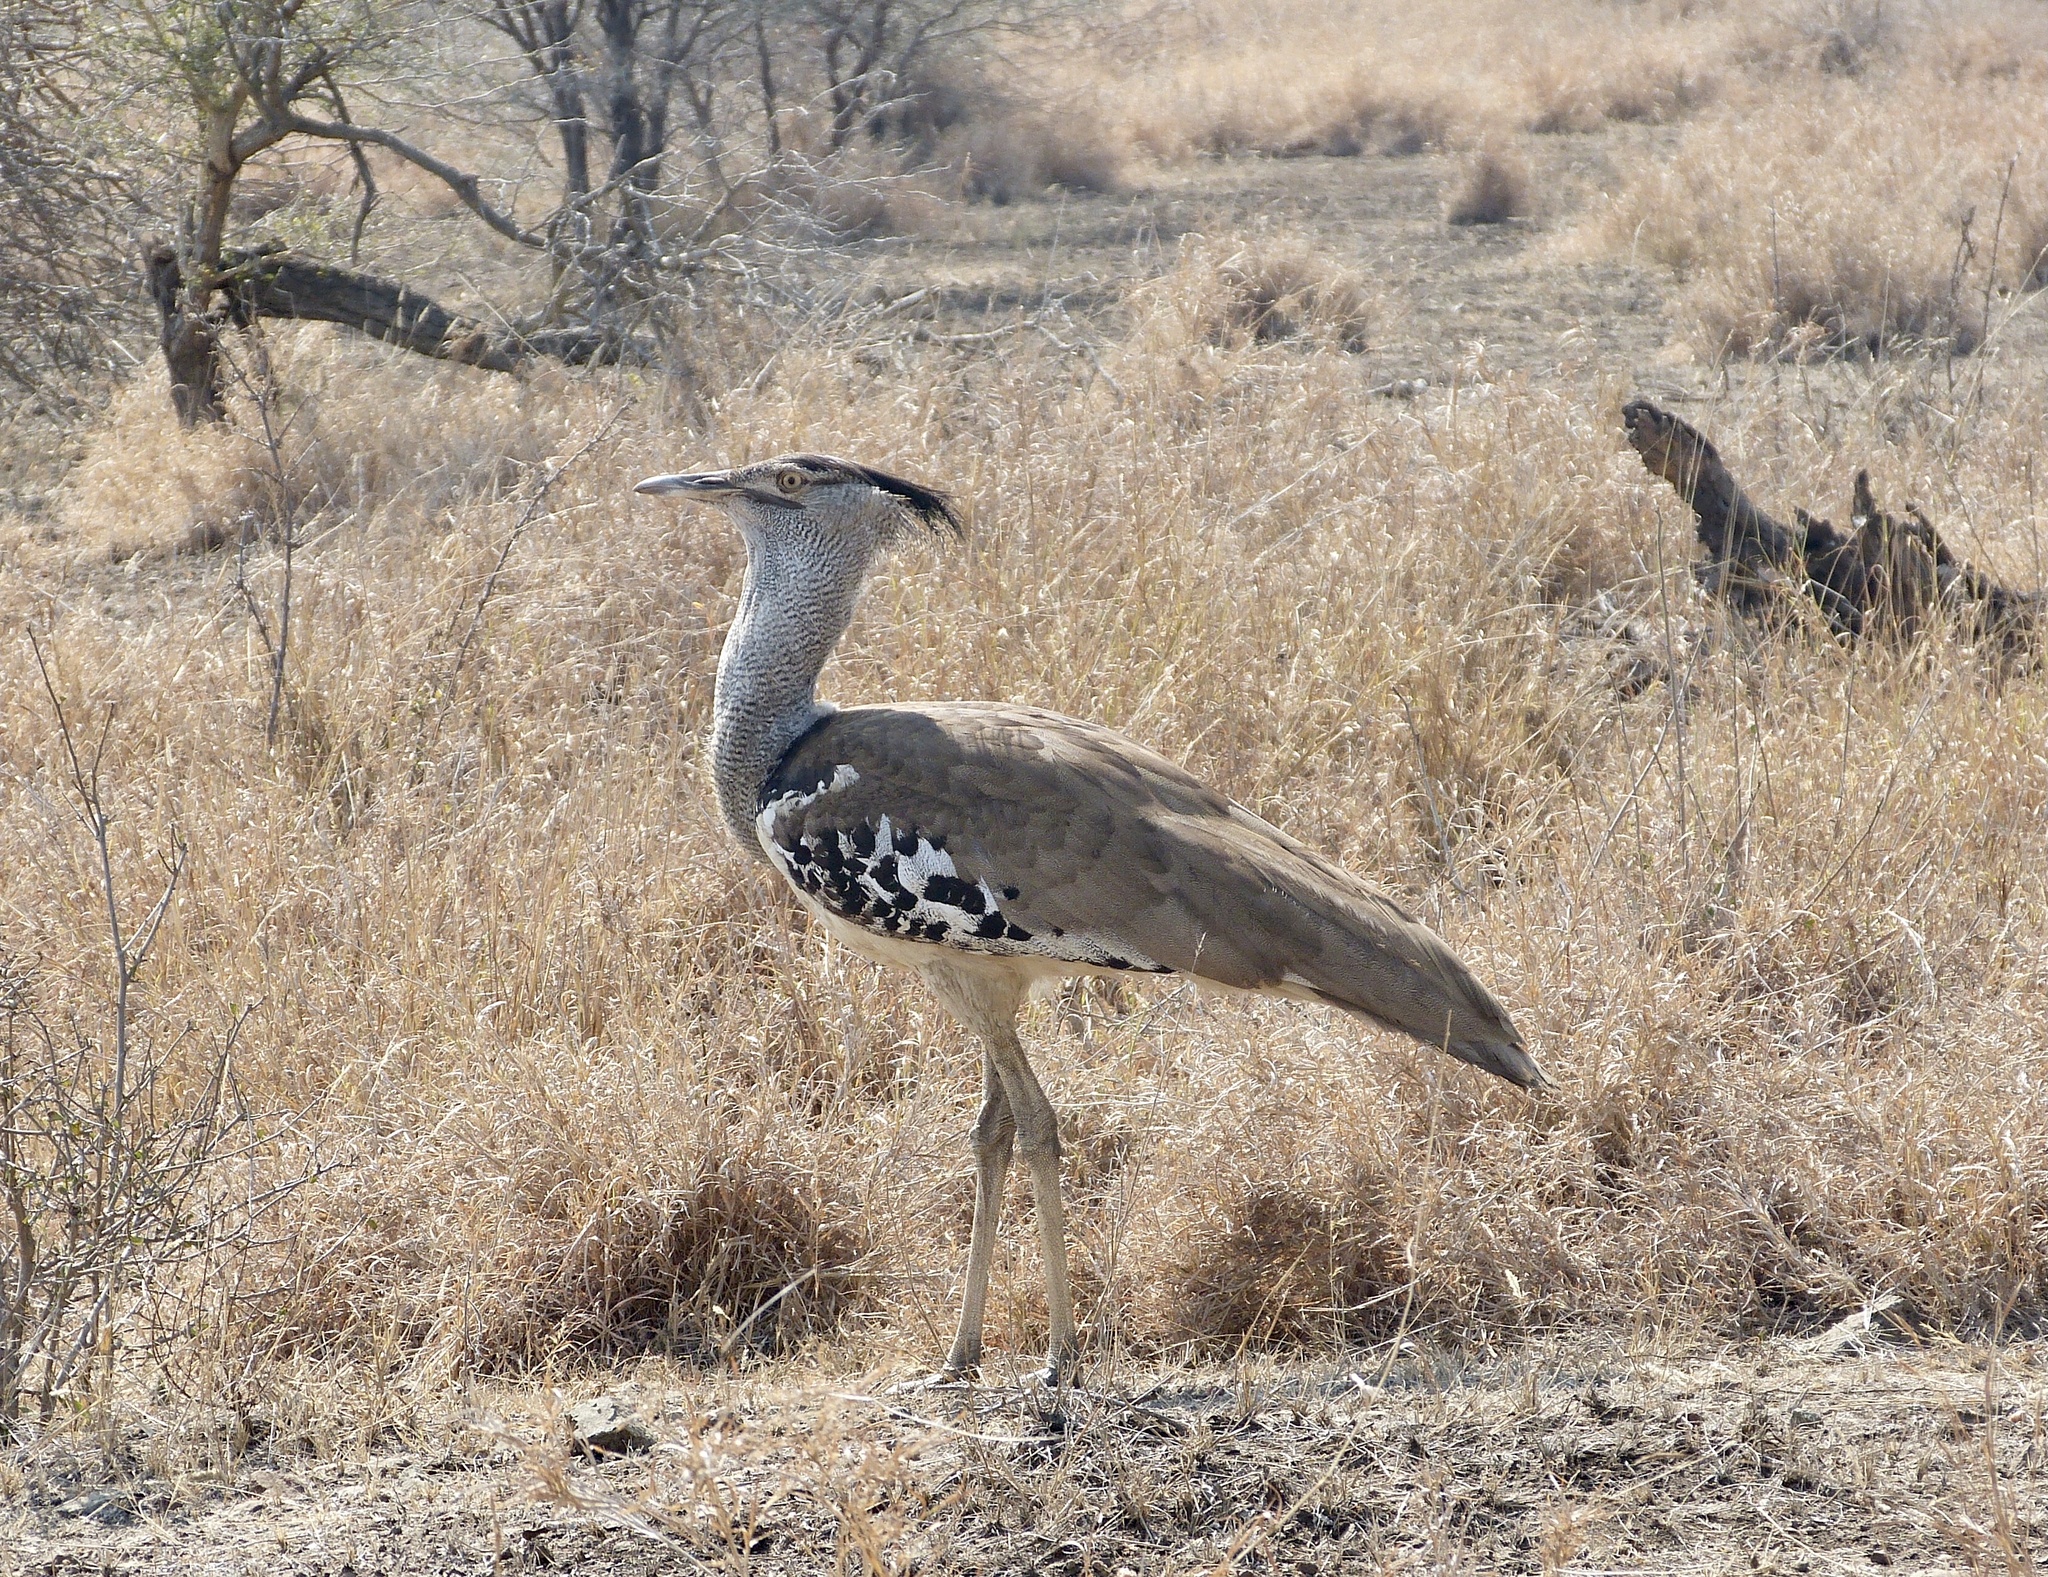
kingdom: Animalia
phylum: Chordata
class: Aves
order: Otidiformes
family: Otididae
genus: Ardeotis
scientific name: Ardeotis kori
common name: Kori bustard
